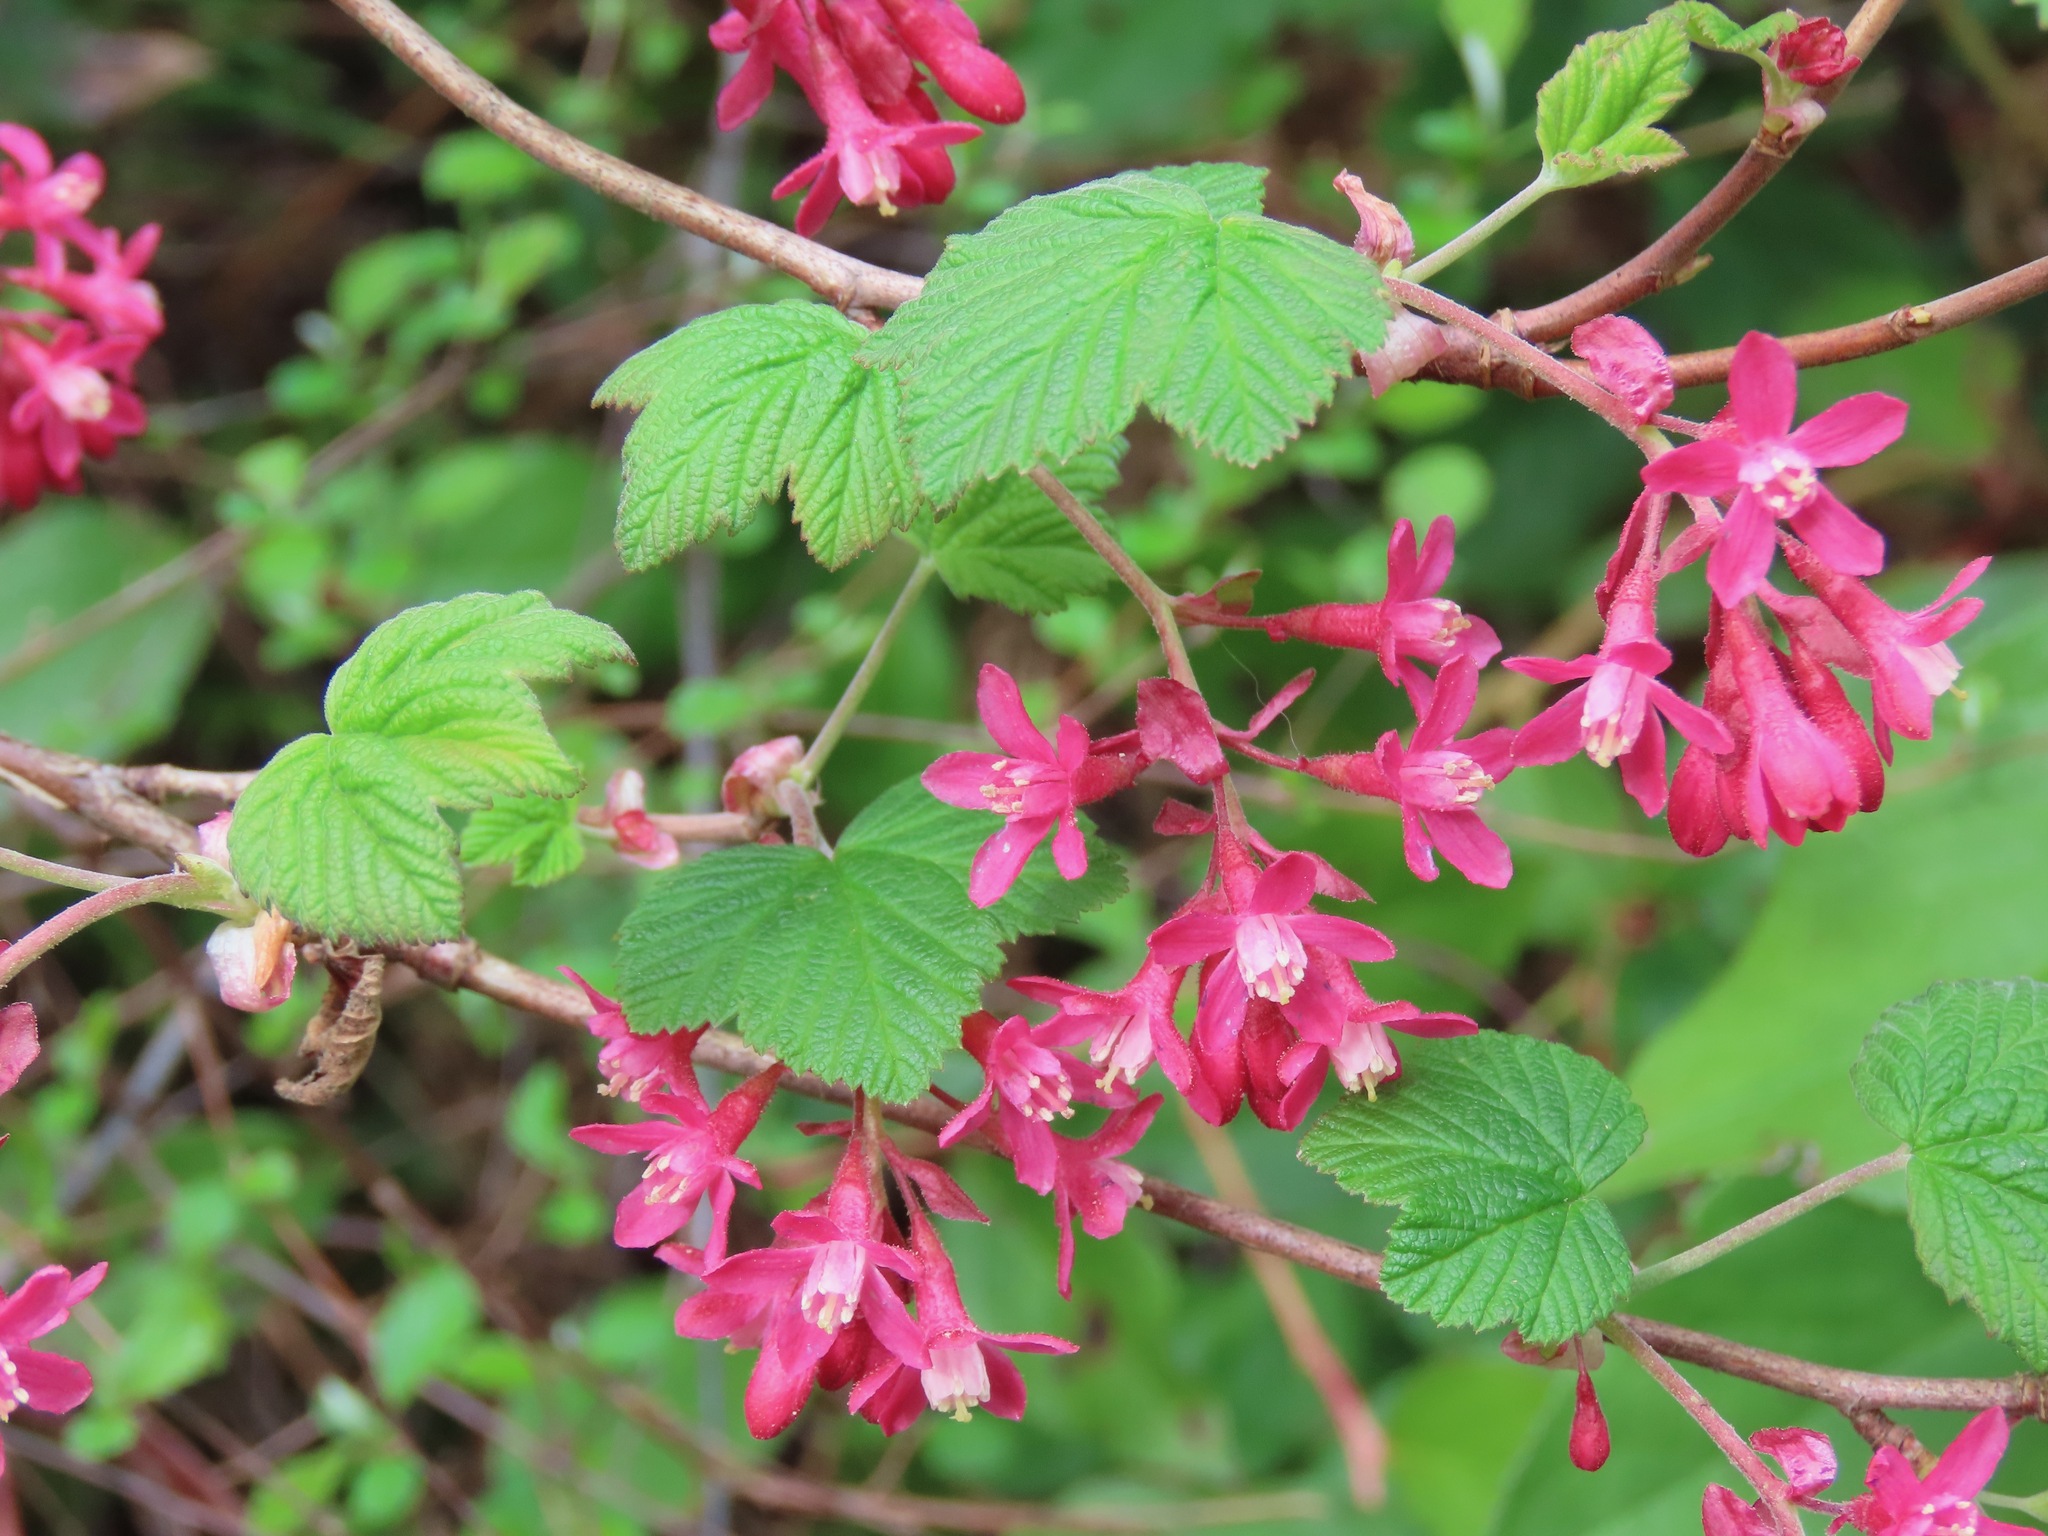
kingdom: Plantae
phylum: Tracheophyta
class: Magnoliopsida
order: Saxifragales
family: Grossulariaceae
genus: Ribes
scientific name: Ribes sanguineum
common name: Flowering currant
